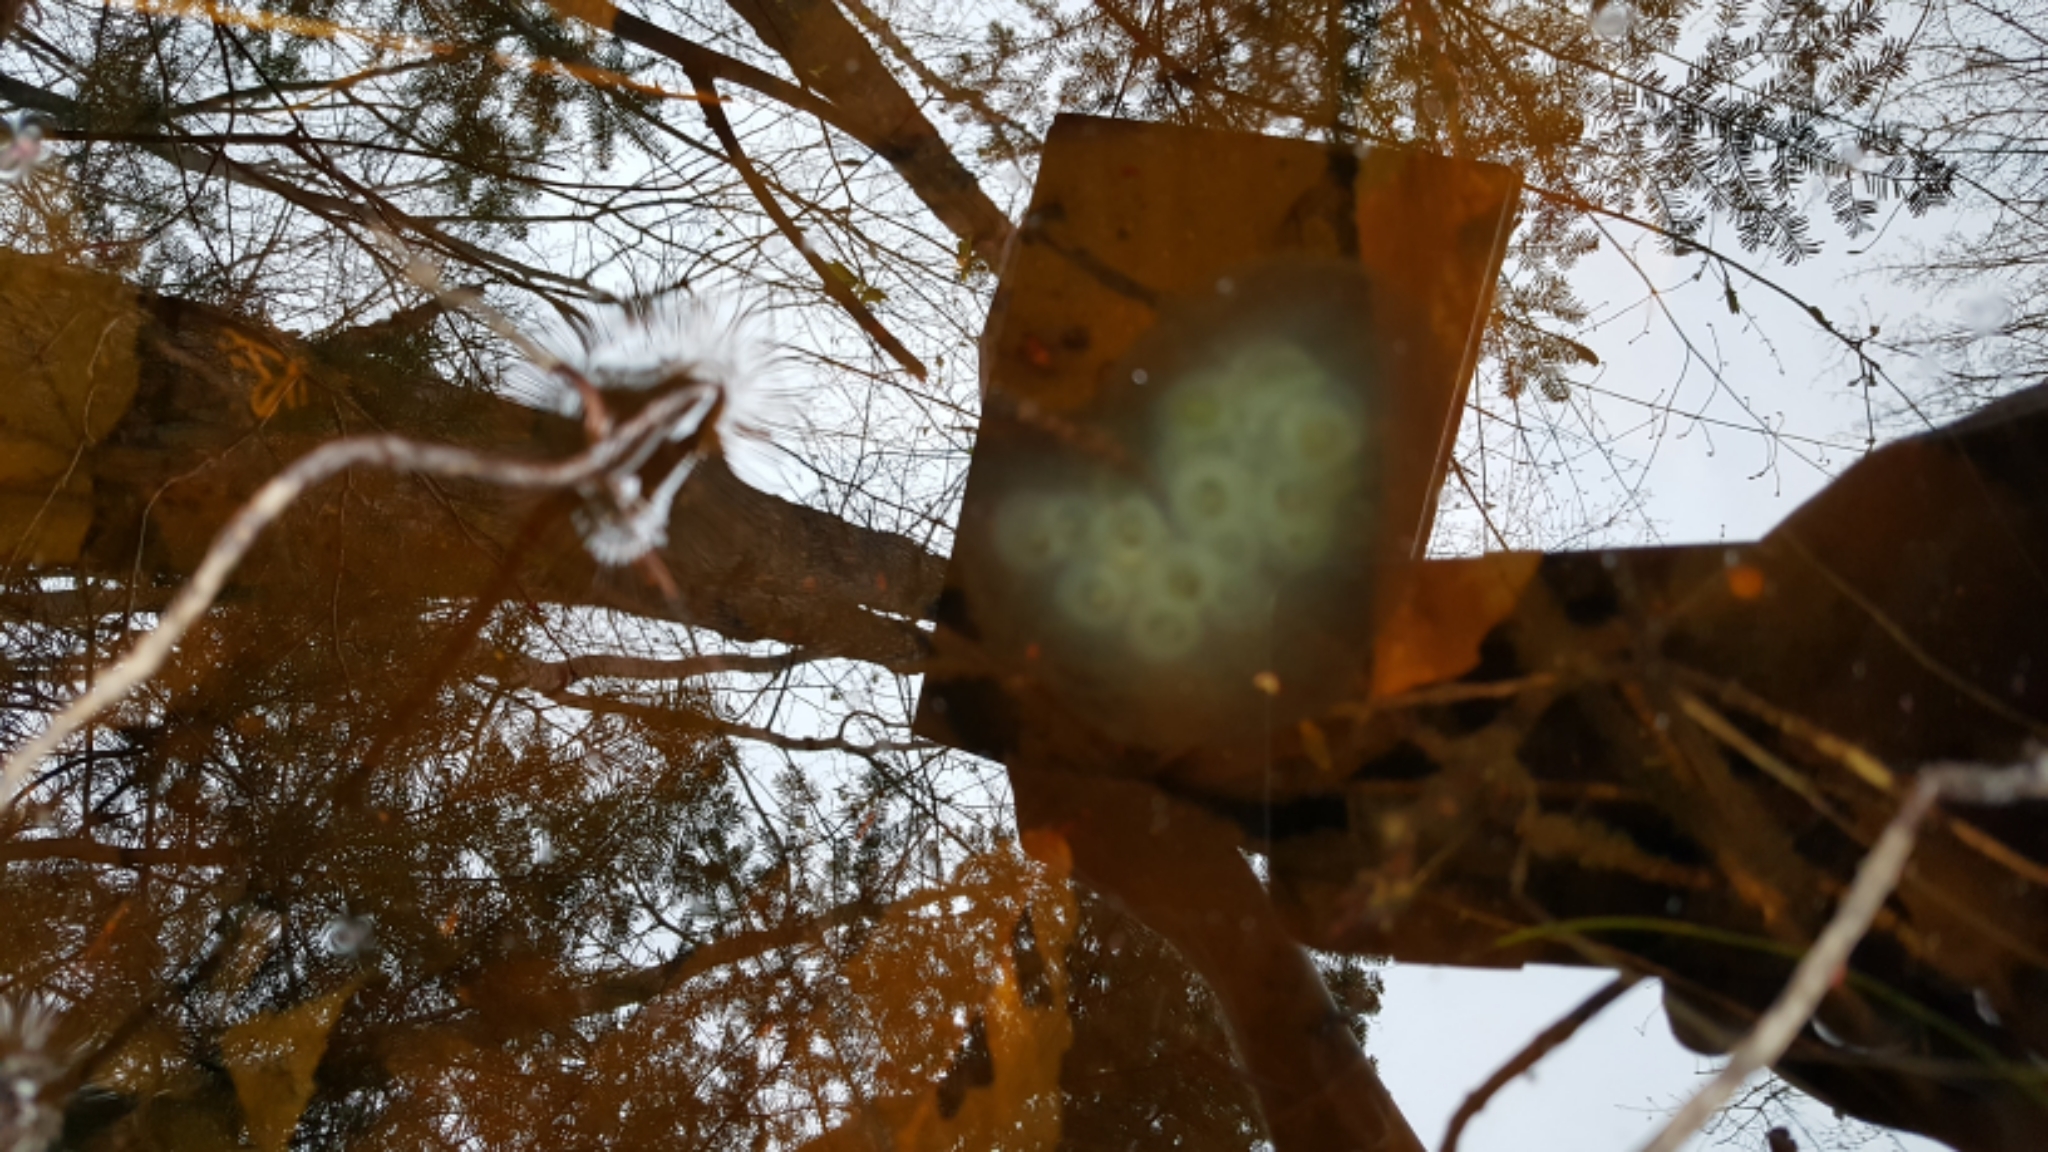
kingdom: Animalia
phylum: Chordata
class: Amphibia
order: Caudata
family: Ambystomatidae
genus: Ambystoma
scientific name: Ambystoma maculatum
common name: Spotted salamander
